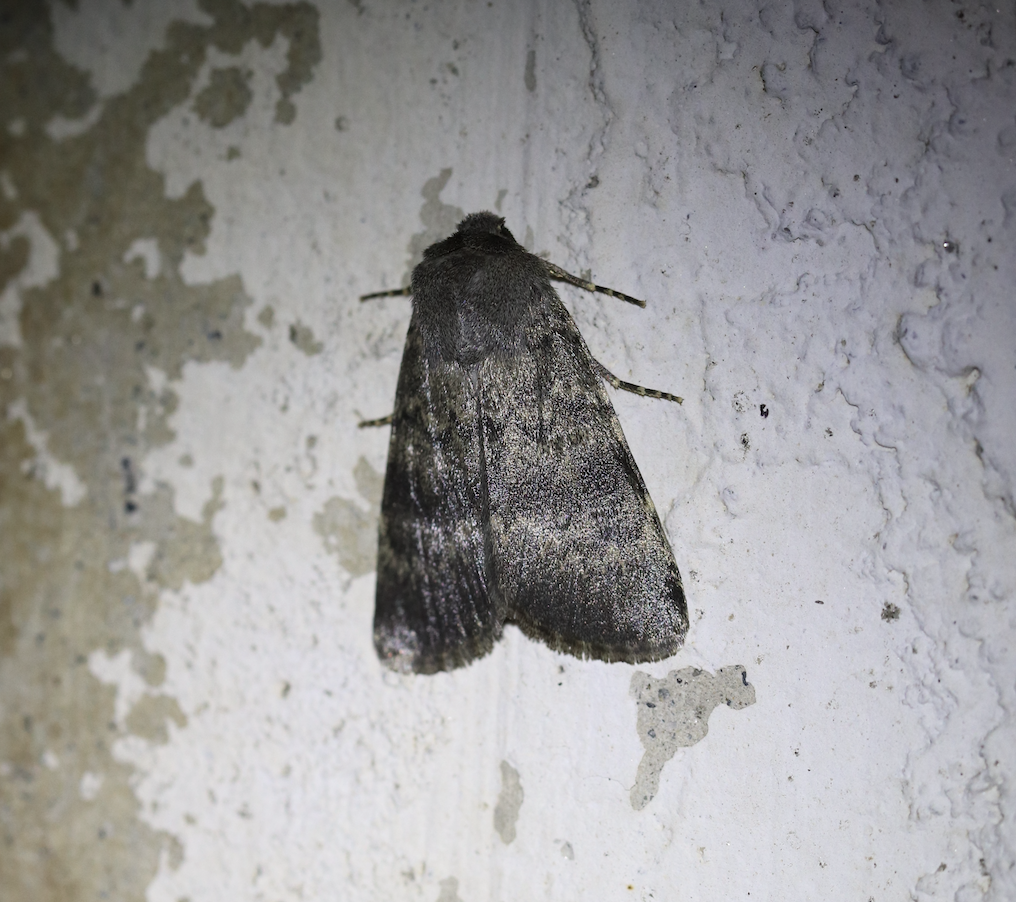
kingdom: Animalia
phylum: Arthropoda
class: Insecta
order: Lepidoptera
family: Noctuidae
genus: Standfussiana
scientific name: Standfussiana lucernea
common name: Northern rustic
